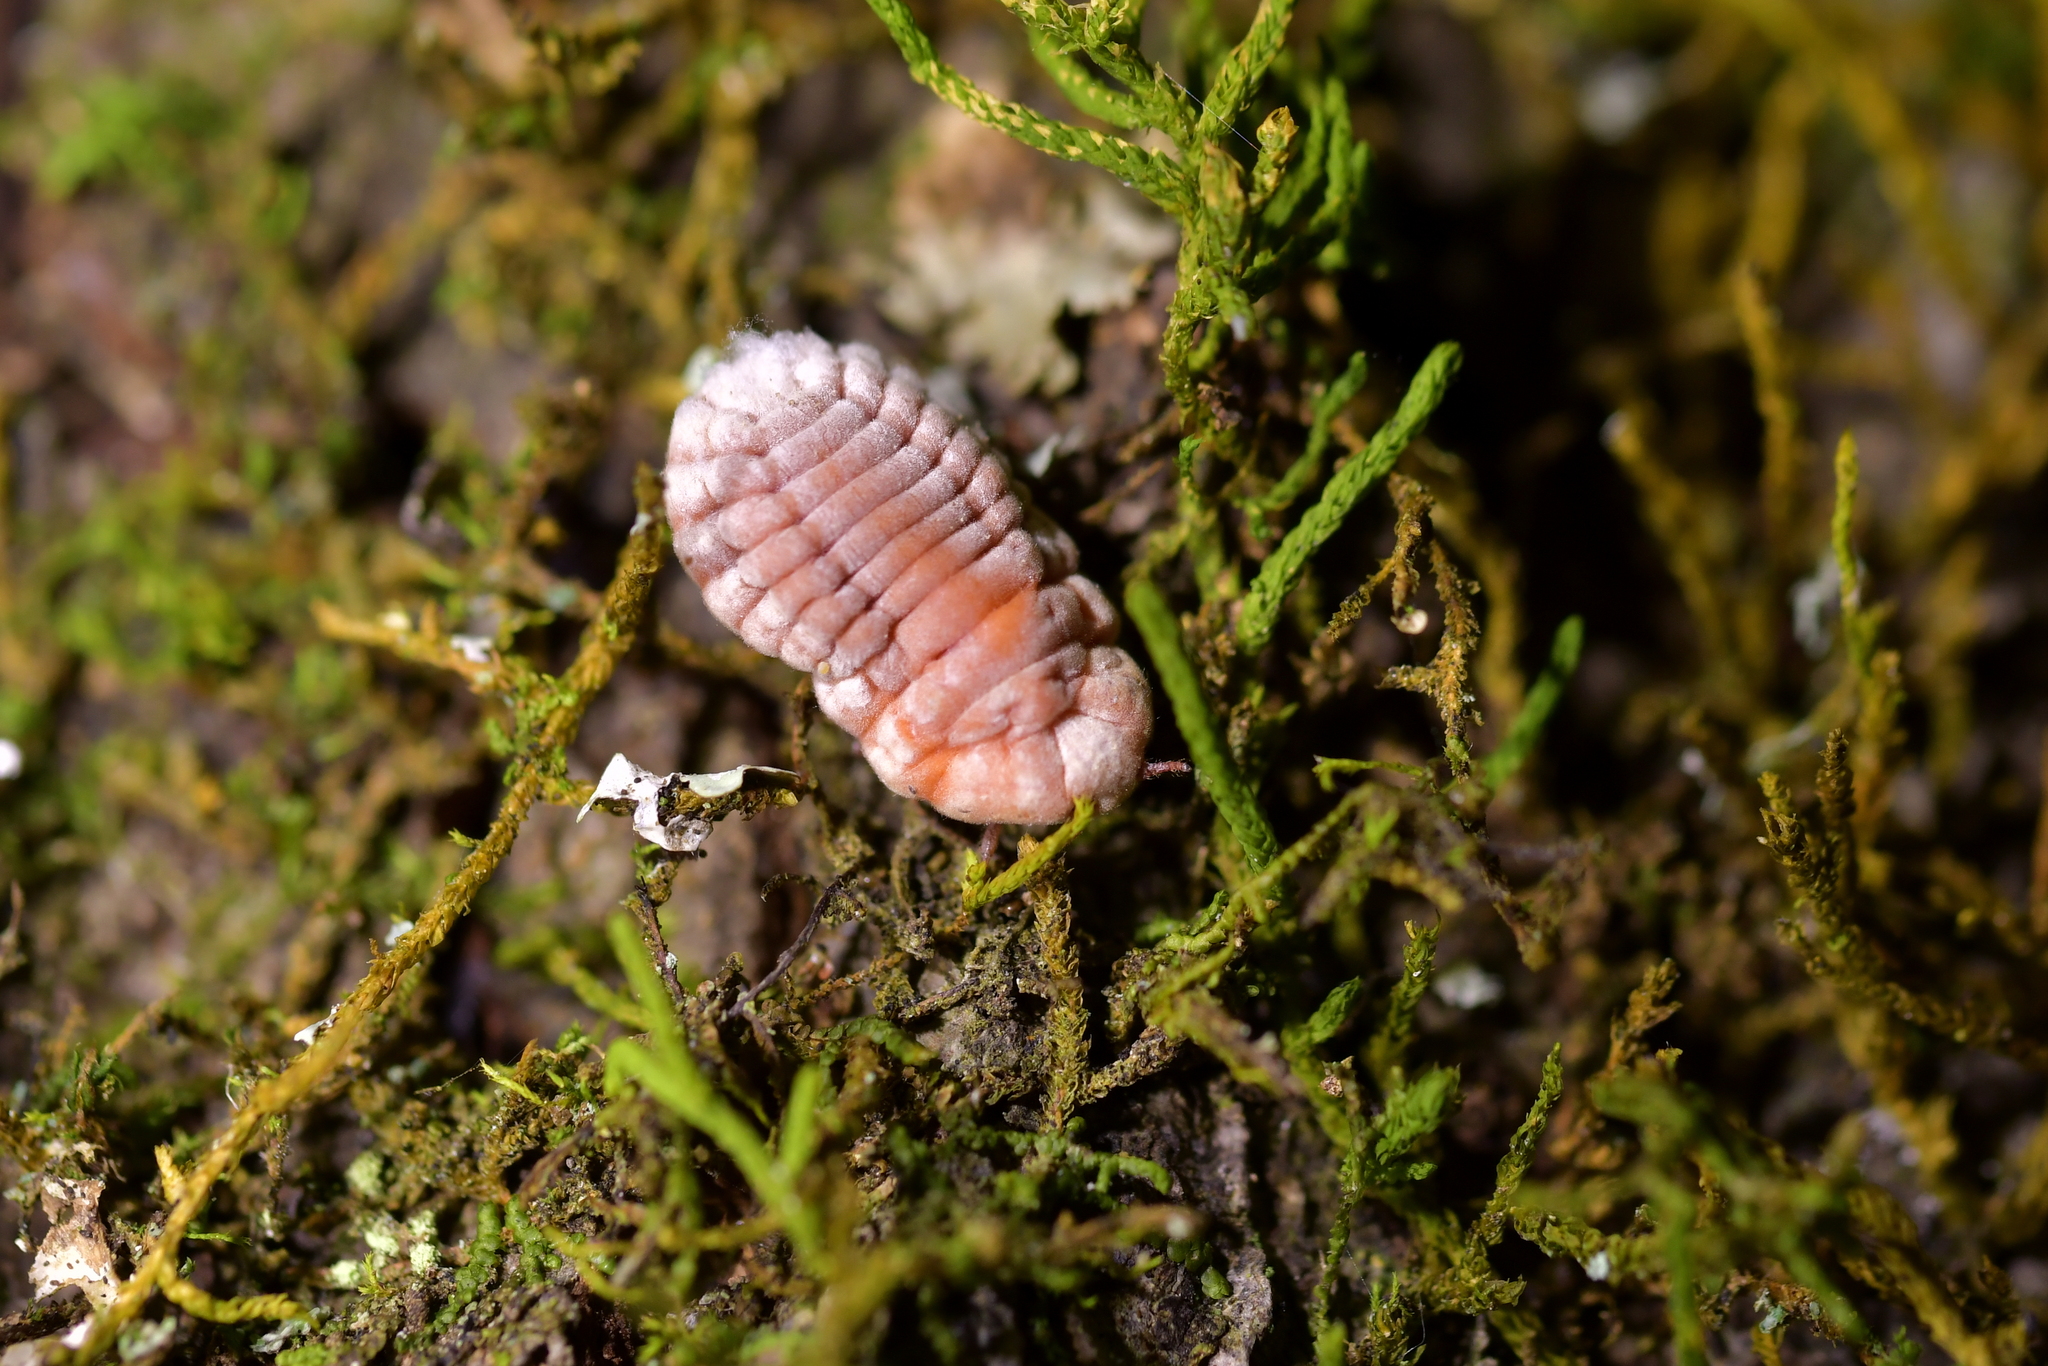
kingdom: Animalia
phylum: Arthropoda
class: Insecta
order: Hemiptera
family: Margarodidae
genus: Coelostomidia
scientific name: Coelostomidia zealandica
